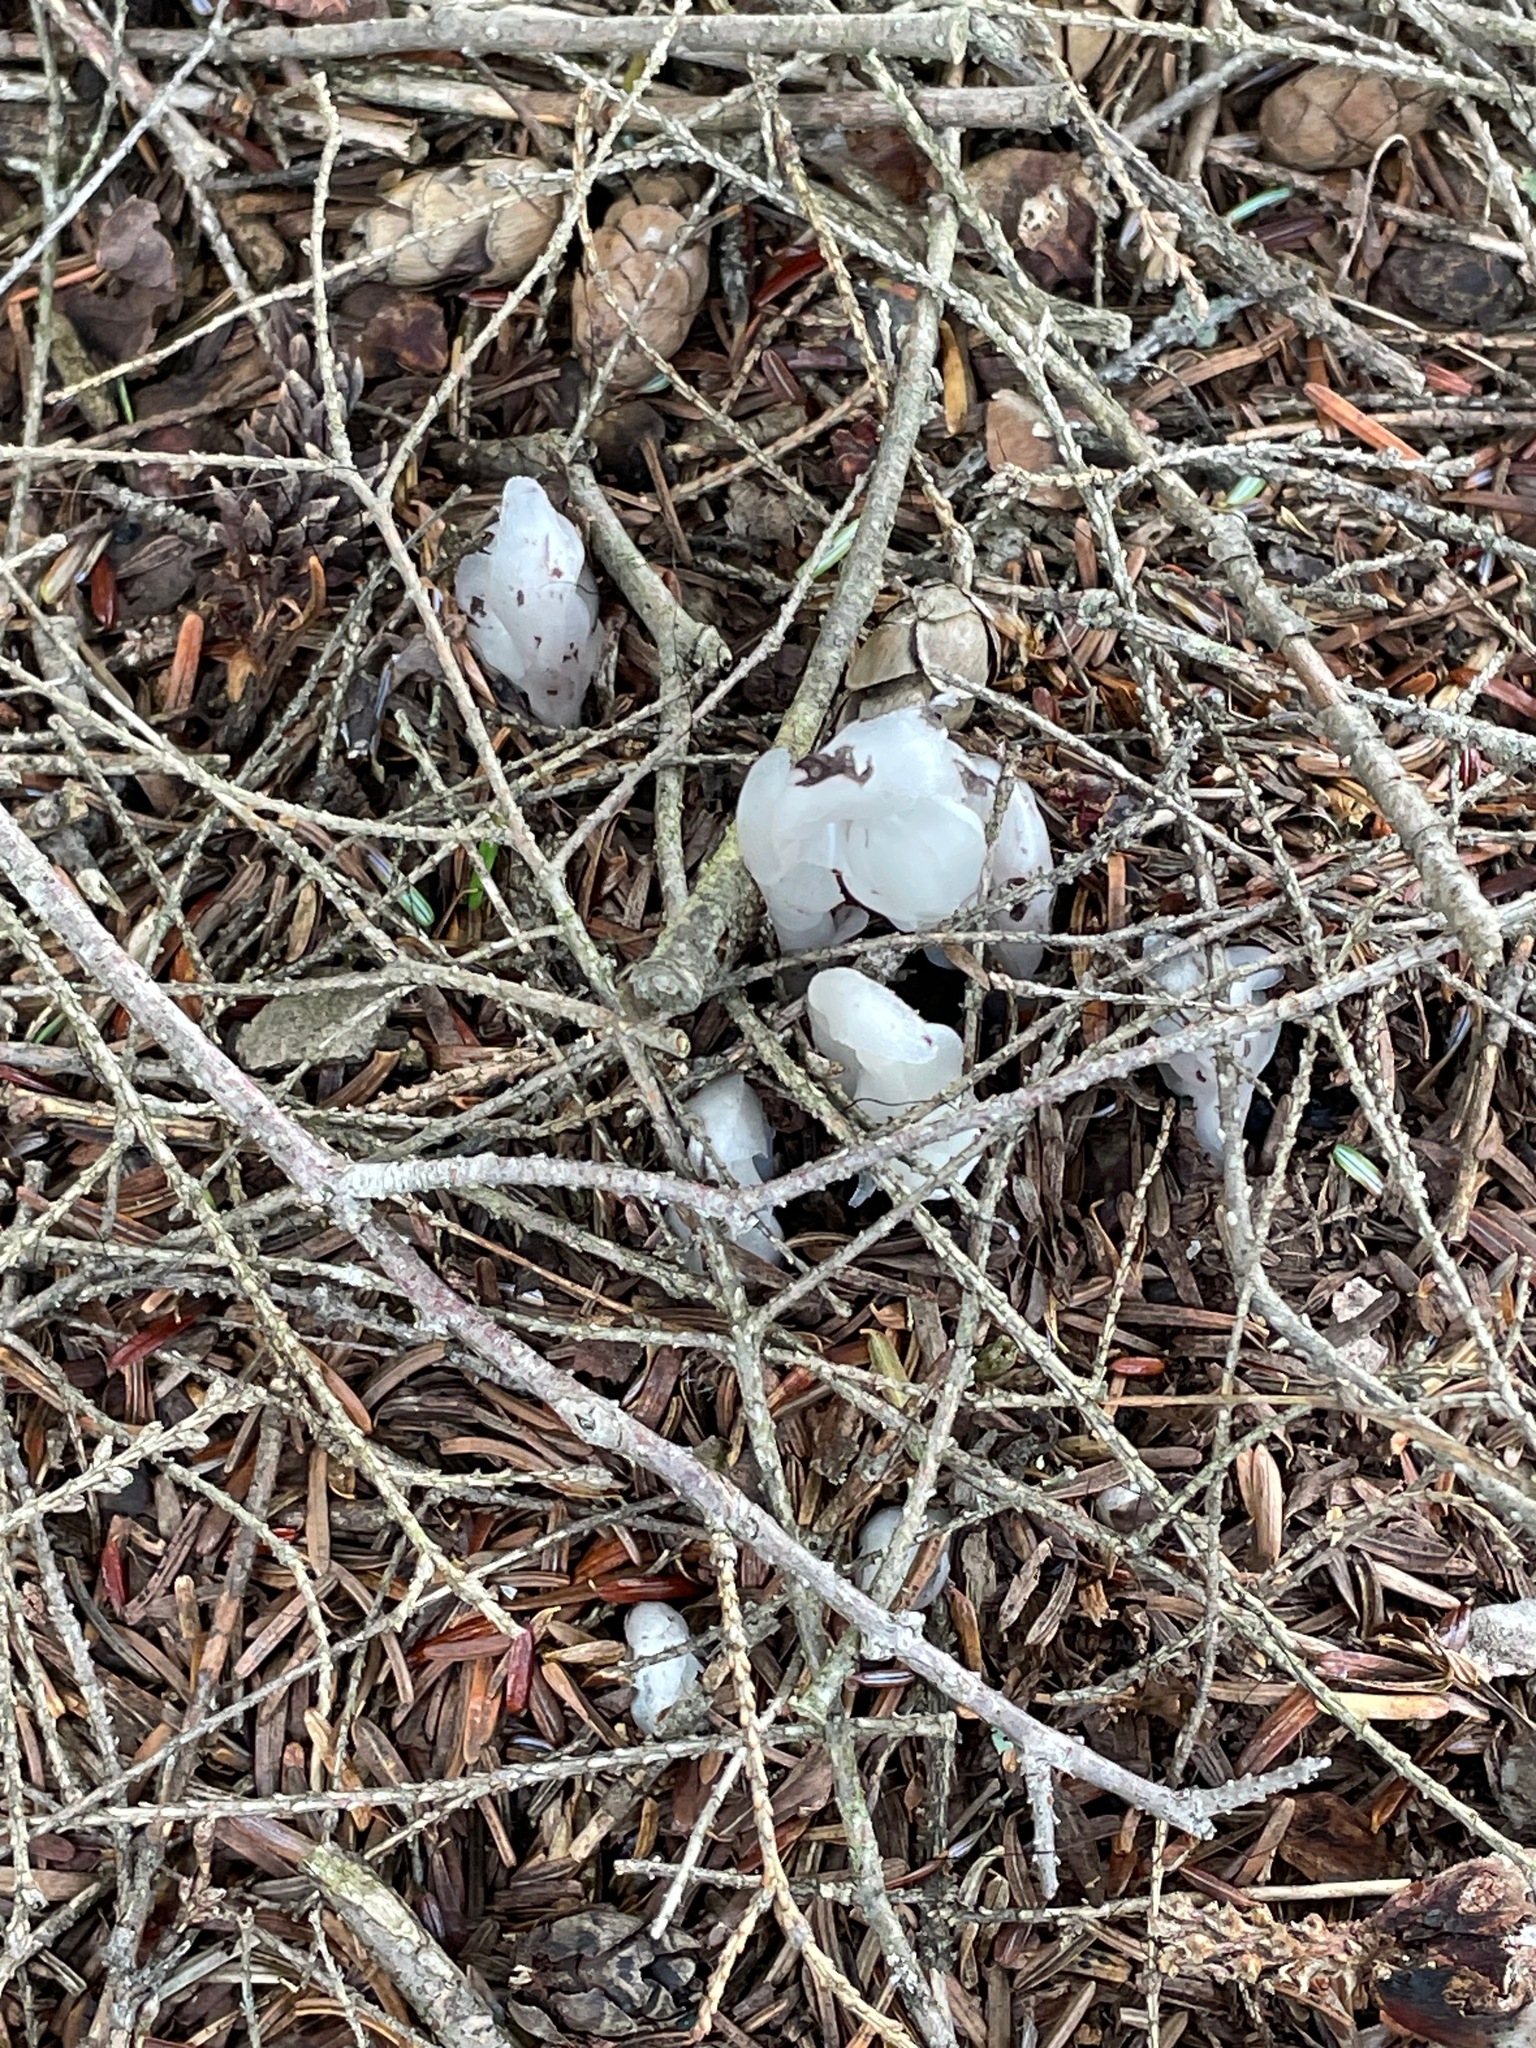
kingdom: Plantae
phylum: Tracheophyta
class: Magnoliopsida
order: Ericales
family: Ericaceae
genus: Monotropa
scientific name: Monotropa uniflora
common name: Convulsion root
